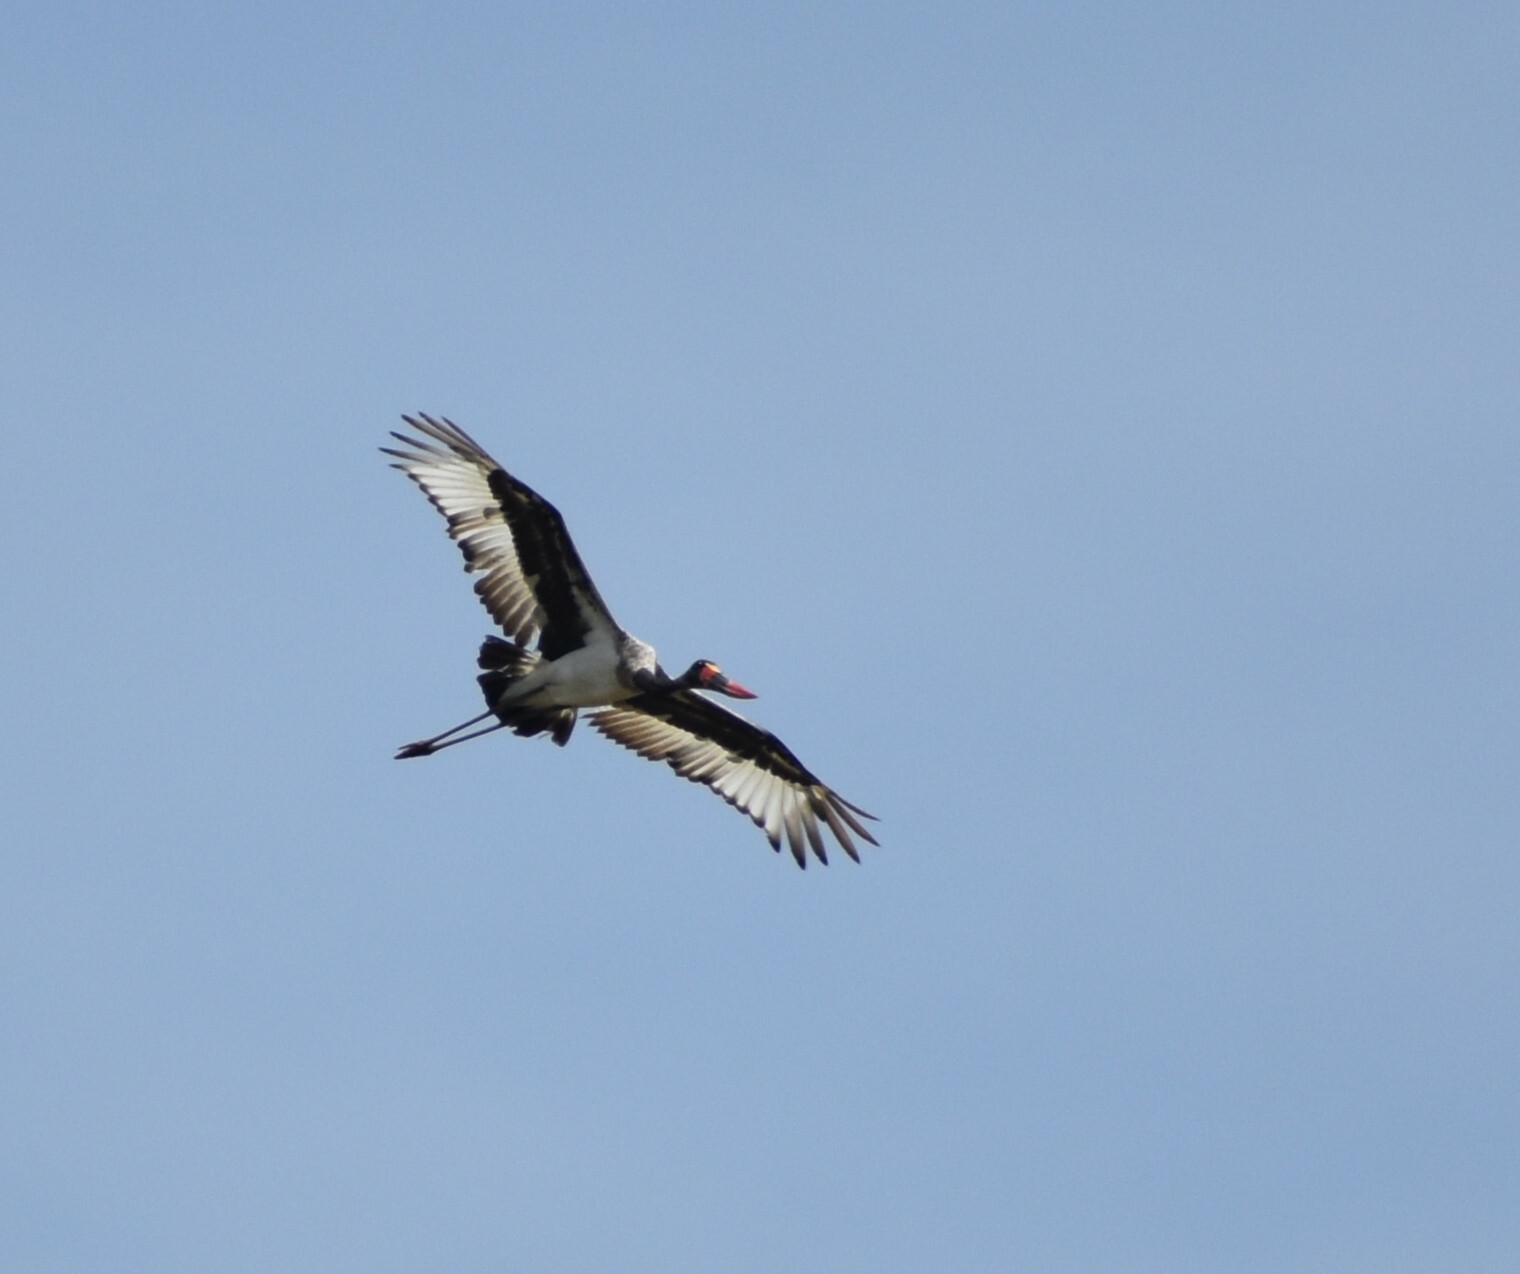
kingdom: Animalia
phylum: Chordata
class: Aves
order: Ciconiiformes
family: Ciconiidae
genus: Ephippiorhynchus
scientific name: Ephippiorhynchus senegalensis
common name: Saddle-billed stork
